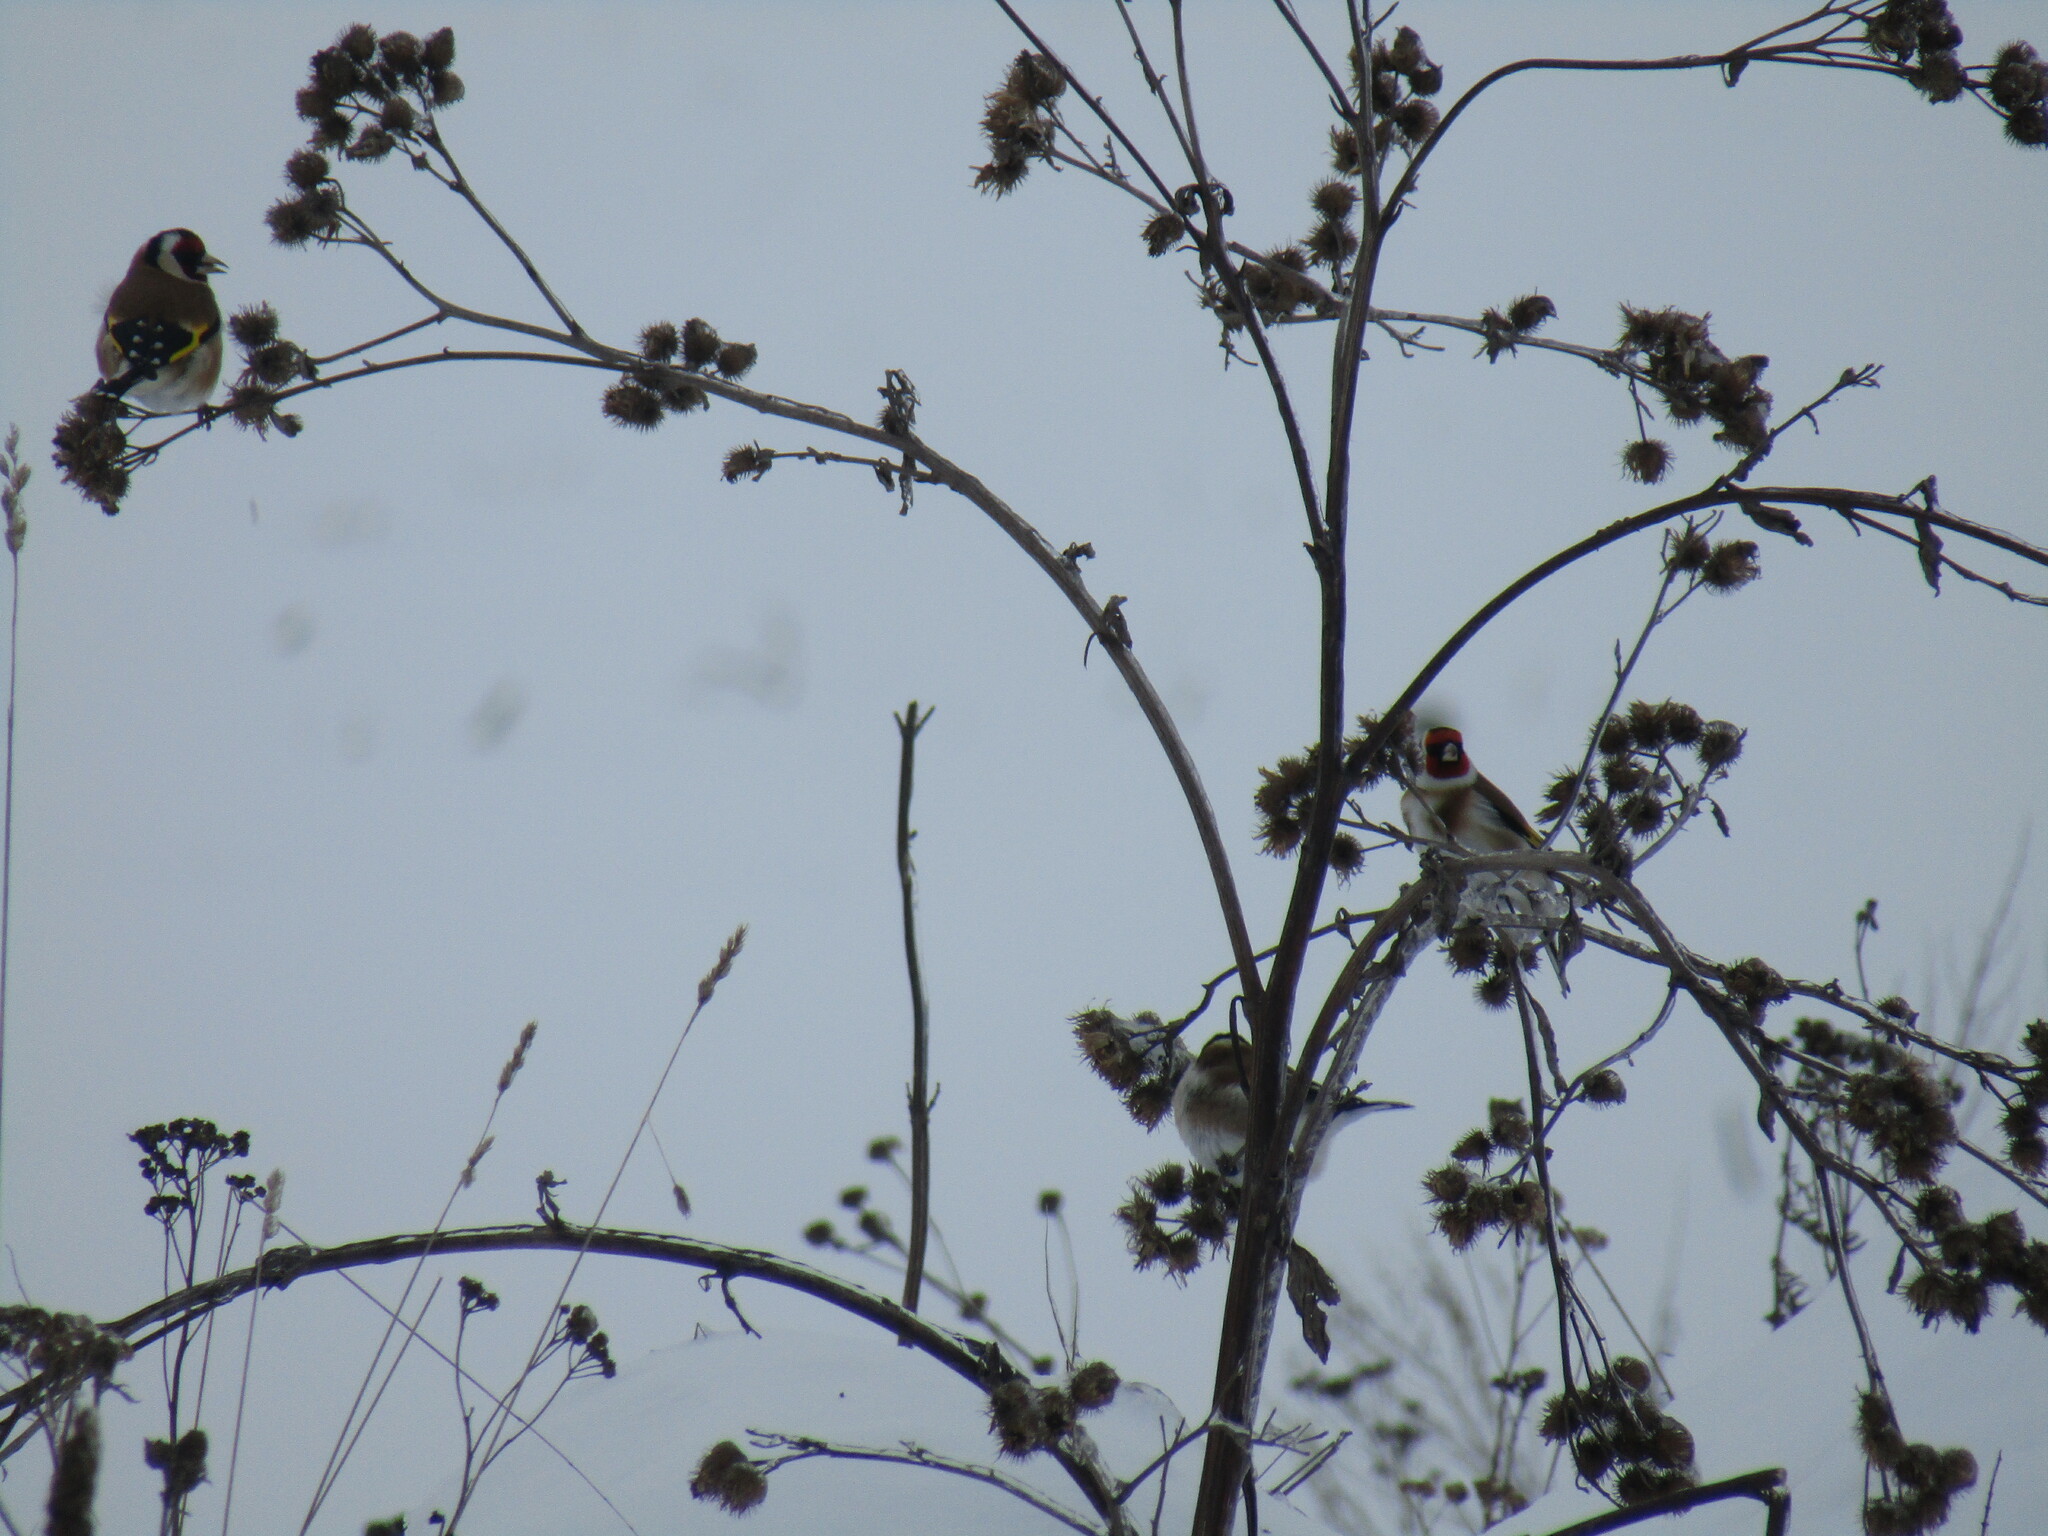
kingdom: Animalia
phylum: Chordata
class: Aves
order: Passeriformes
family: Fringillidae
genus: Carduelis
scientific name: Carduelis carduelis
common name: European goldfinch
